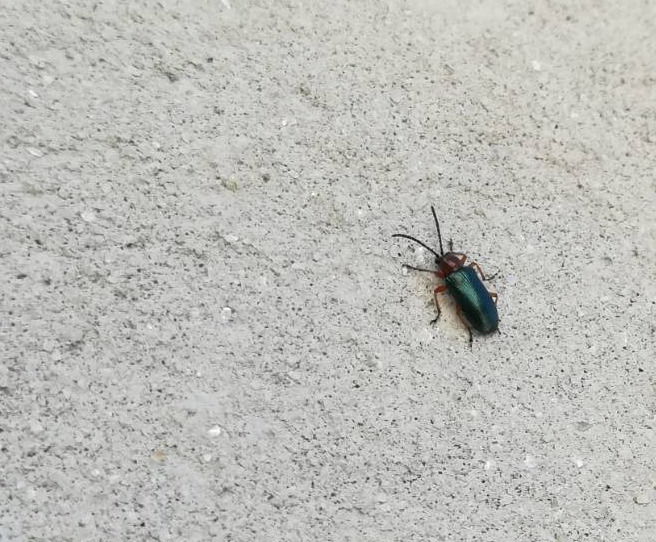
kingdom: Animalia
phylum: Arthropoda
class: Insecta
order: Coleoptera
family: Chrysomelidae
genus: Oulema
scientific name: Oulema
